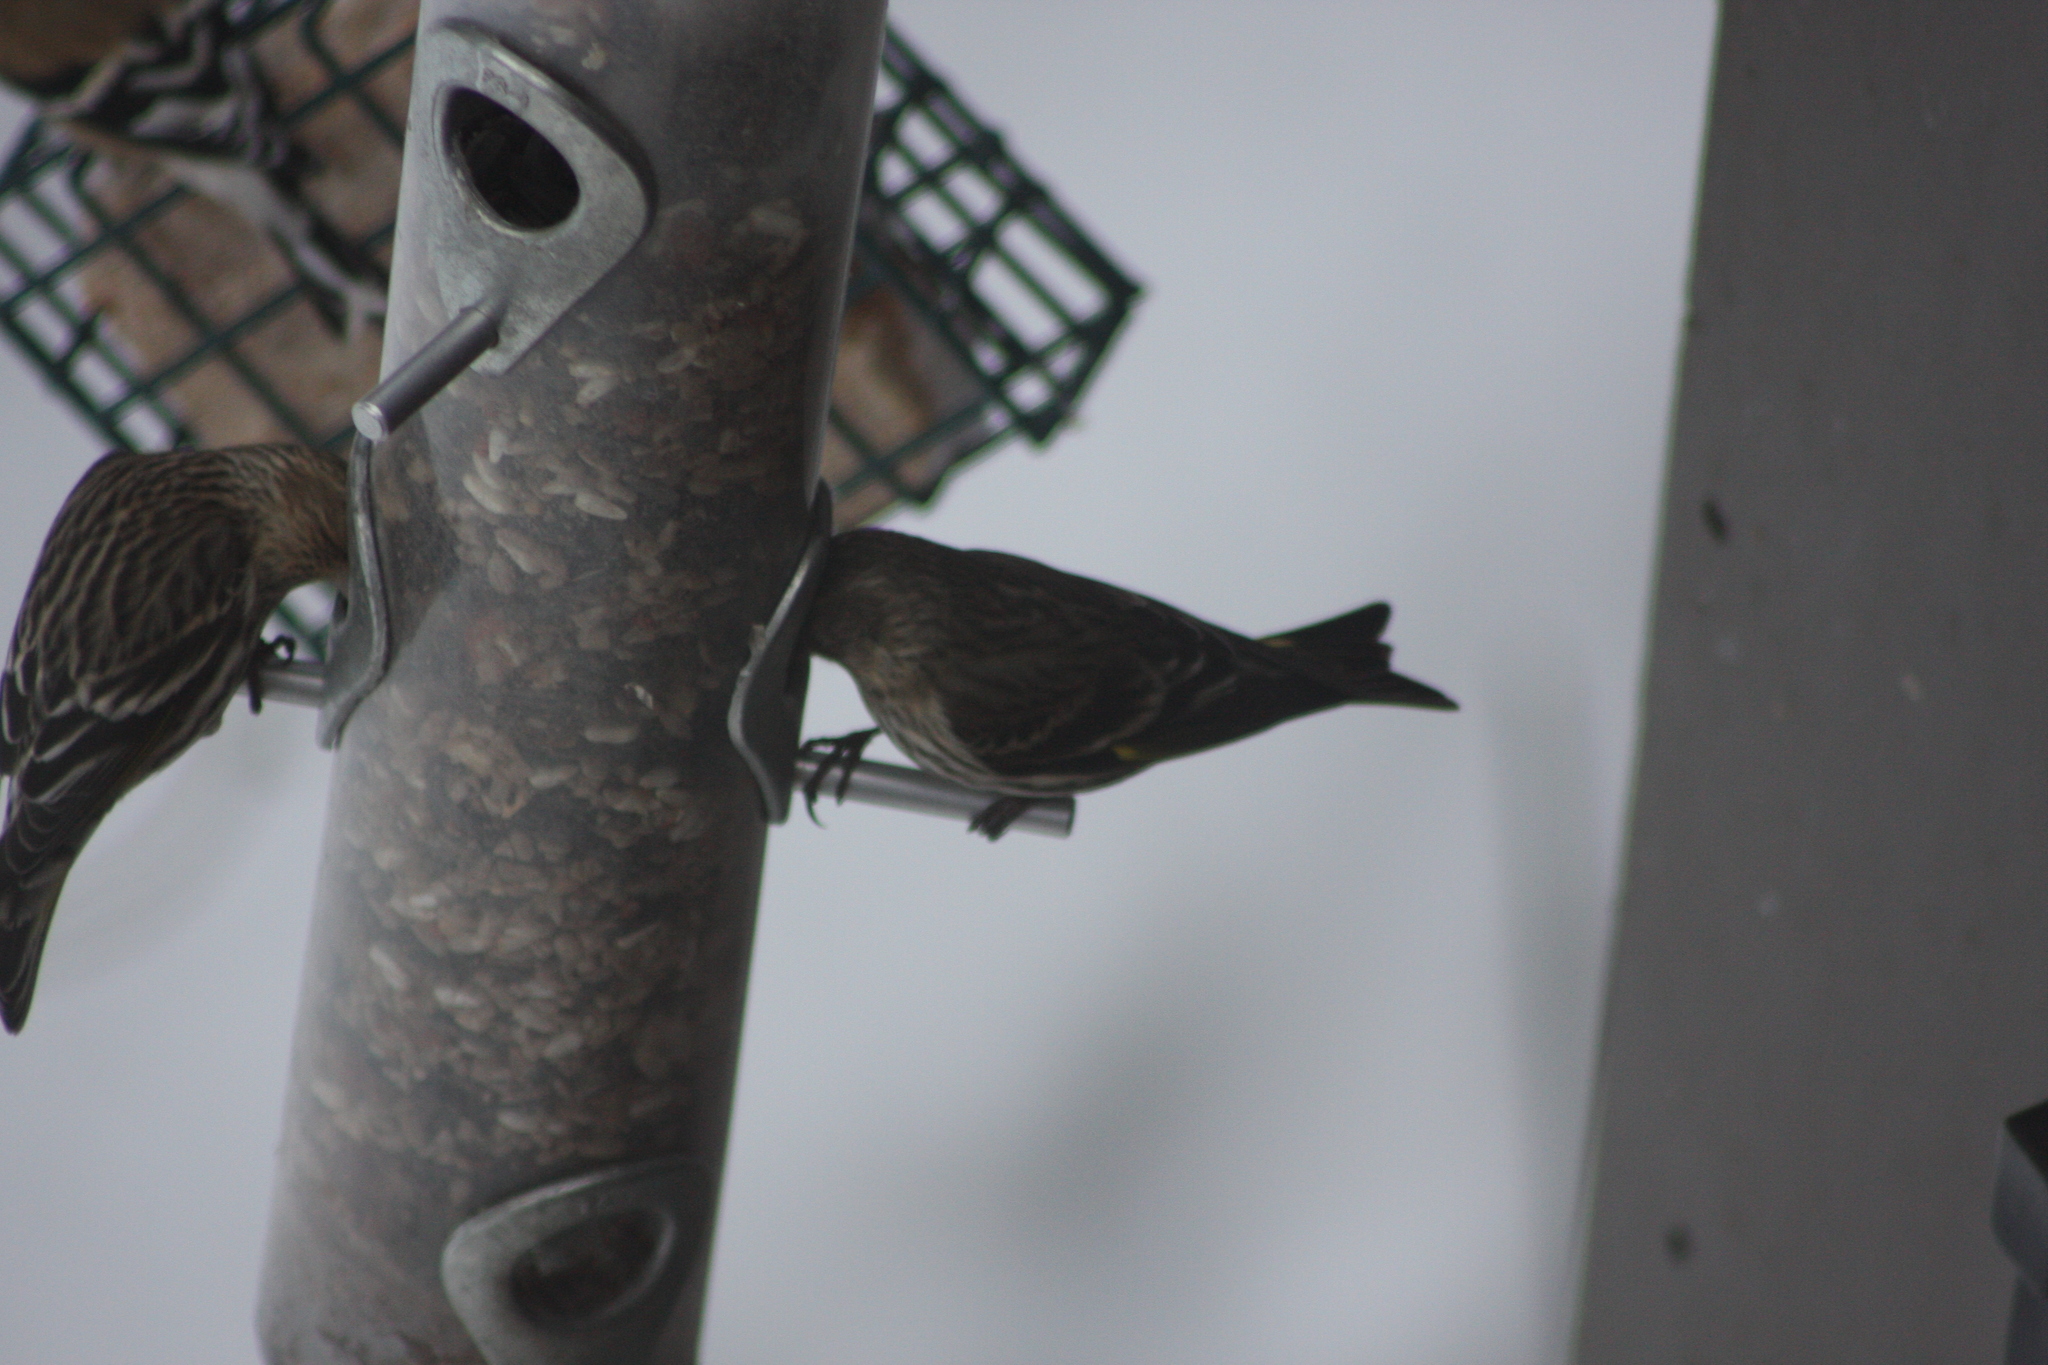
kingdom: Animalia
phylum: Chordata
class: Aves
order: Passeriformes
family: Fringillidae
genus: Spinus
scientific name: Spinus pinus
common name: Pine siskin
